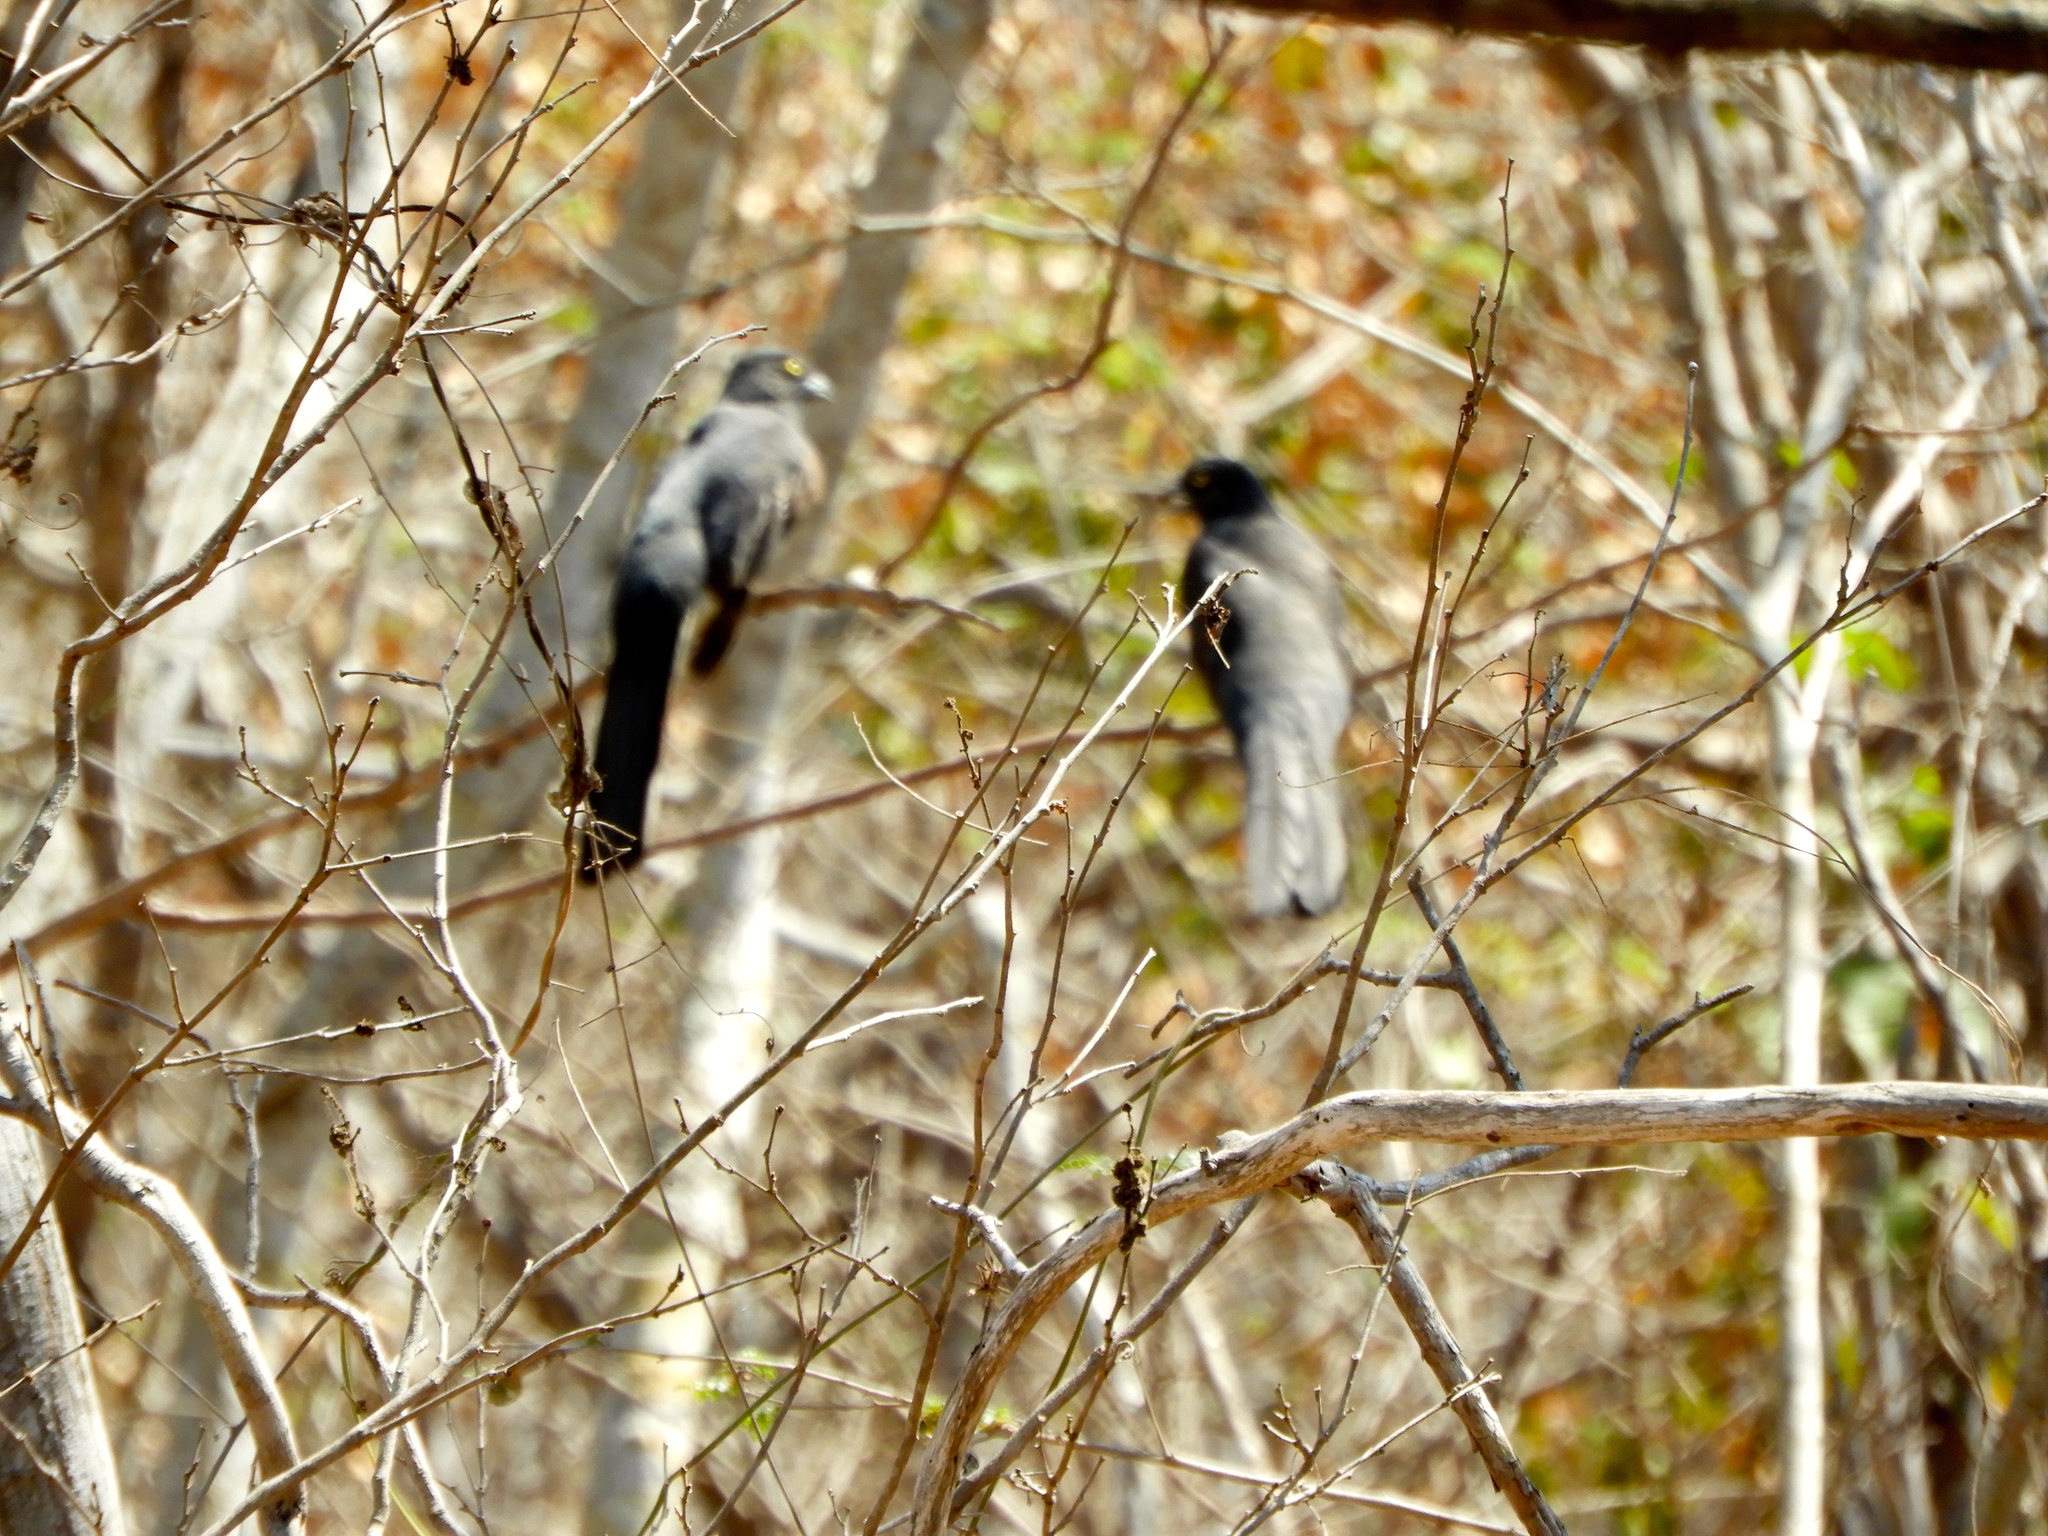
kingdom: Animalia
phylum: Chordata
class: Aves
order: Trogoniformes
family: Trogonidae
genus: Trogon
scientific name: Trogon citreolus
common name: Citreoline trogon
